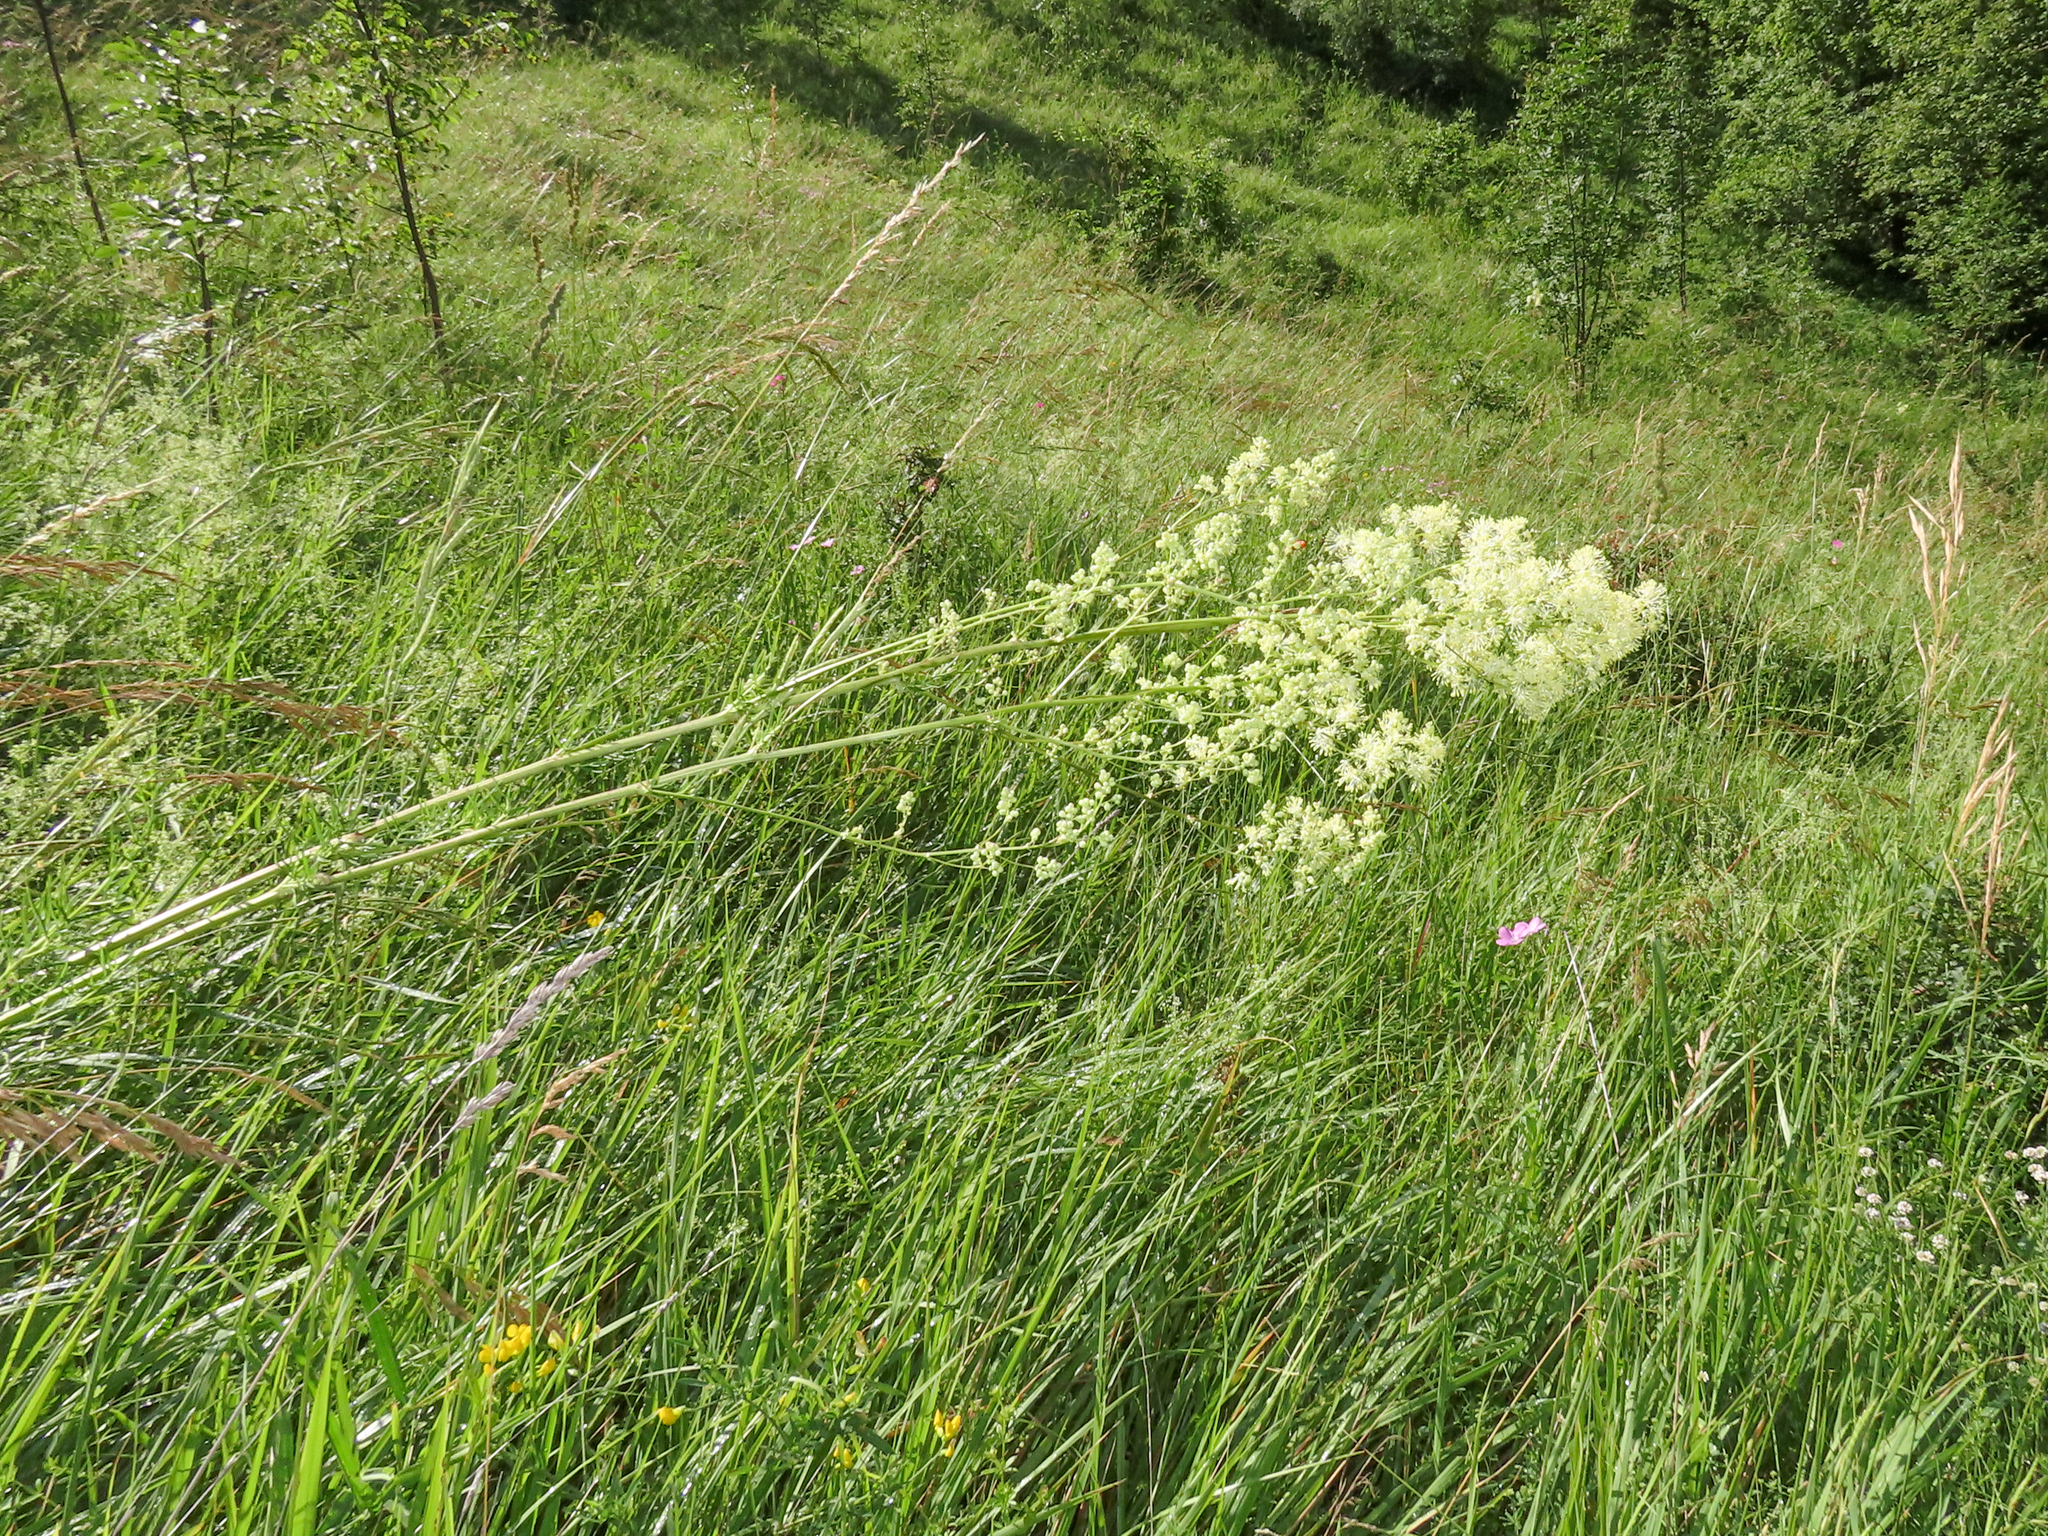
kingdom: Plantae
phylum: Tracheophyta
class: Magnoliopsida
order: Ranunculales
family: Ranunculaceae
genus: Thalictrum
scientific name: Thalictrum lucidum
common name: Shining meadow-rue
